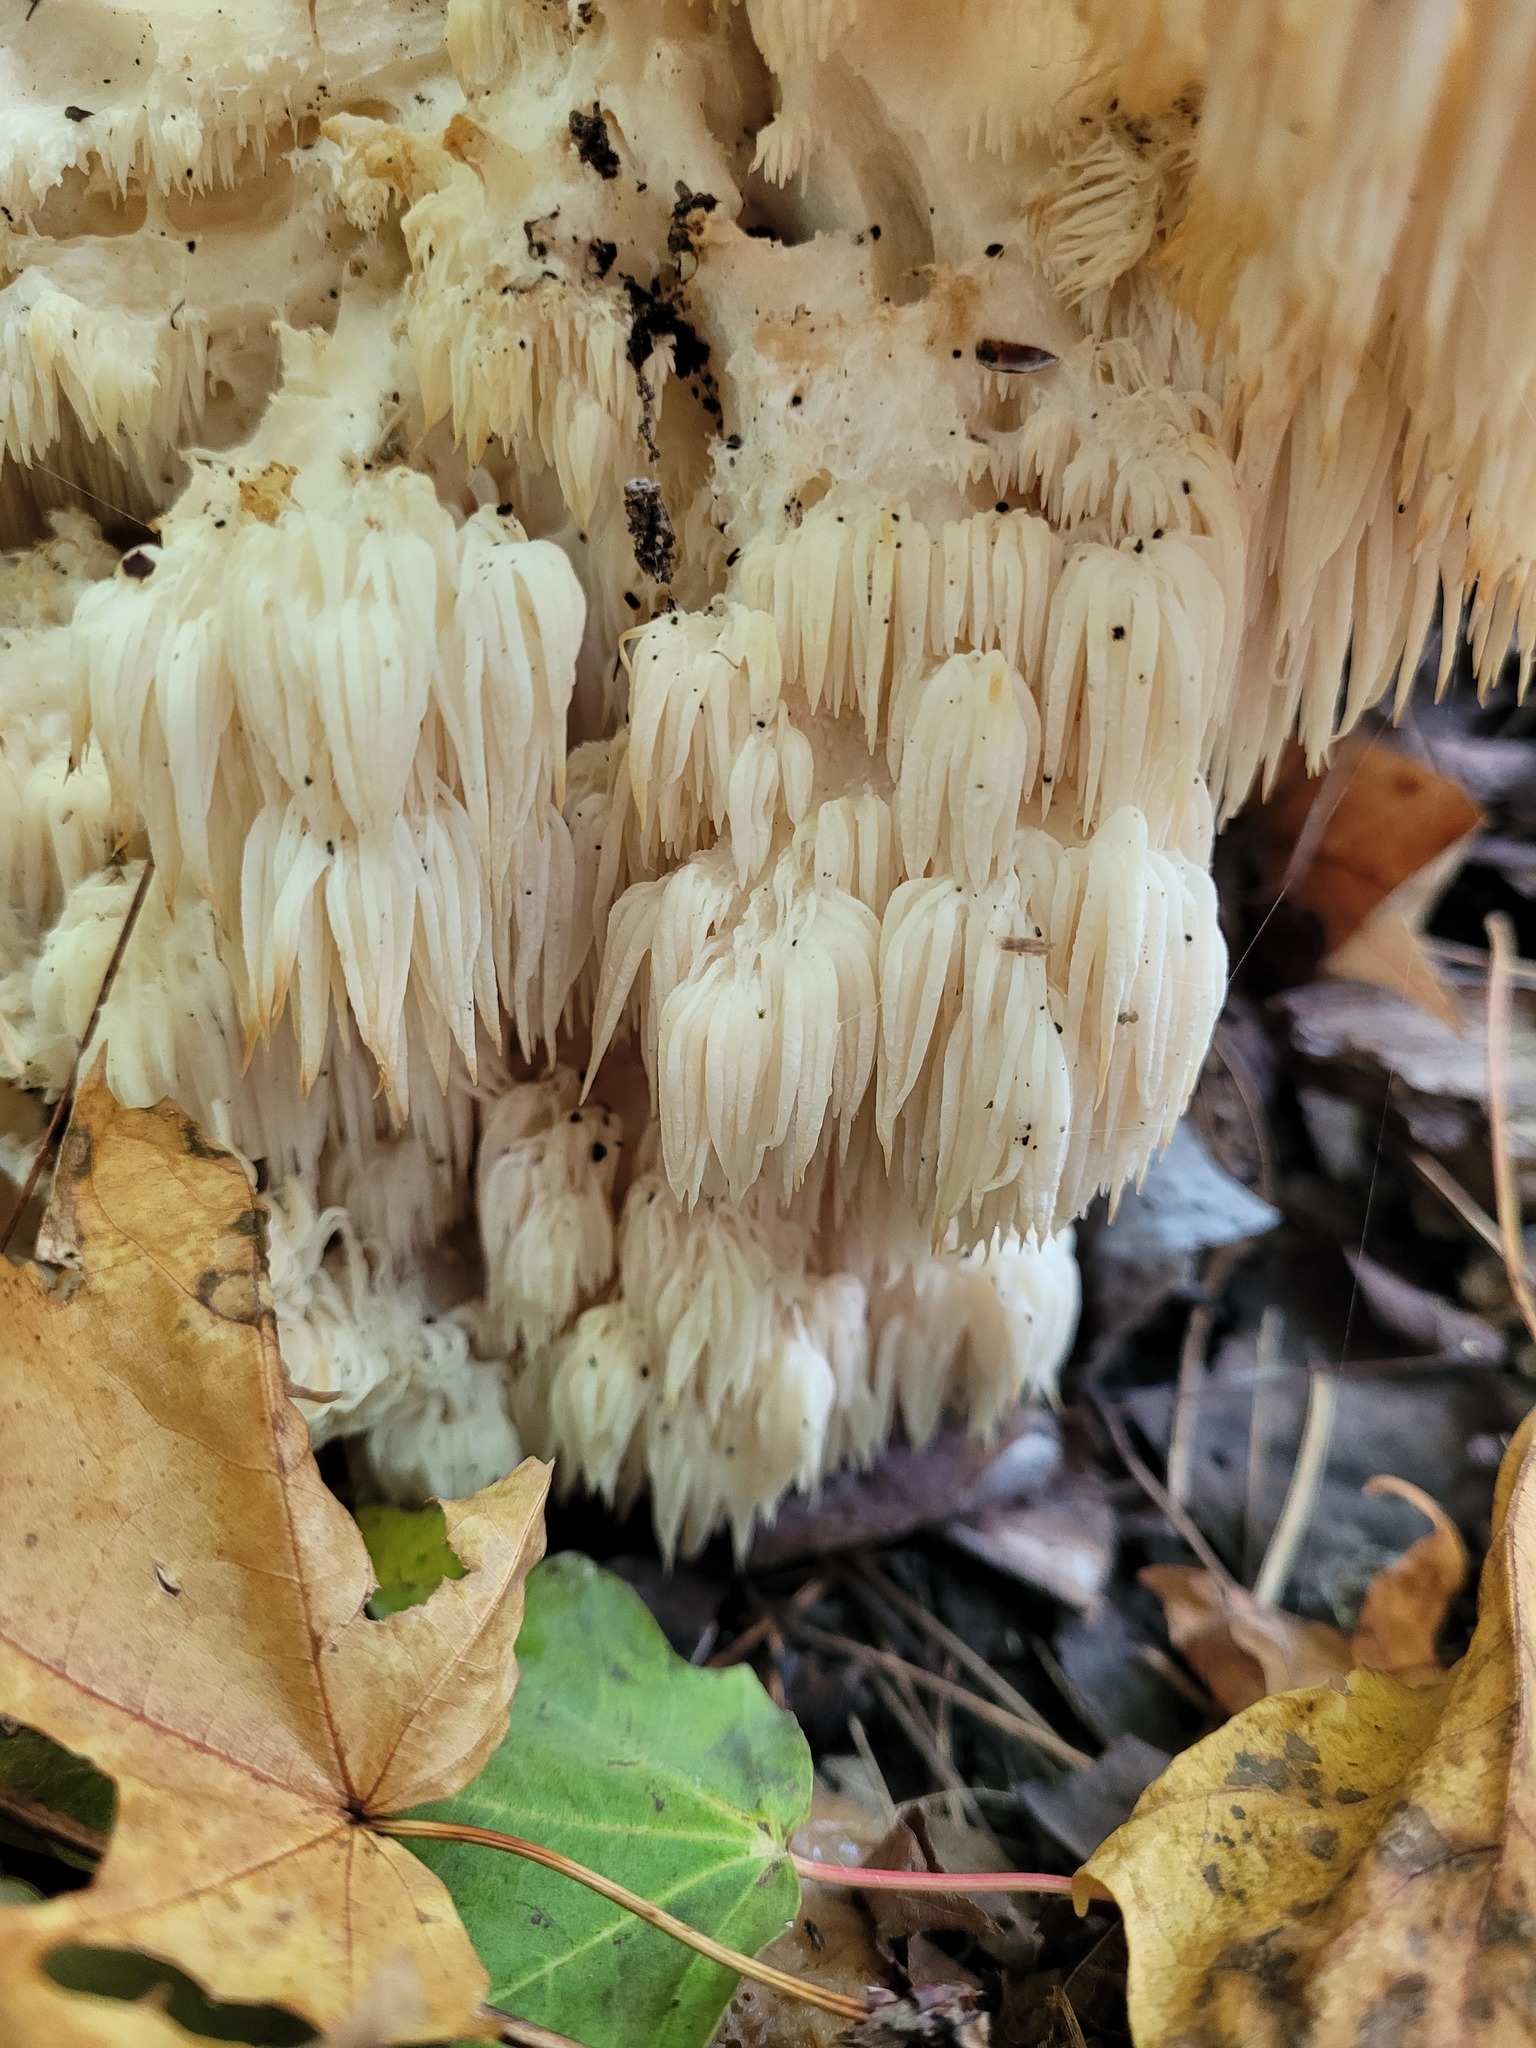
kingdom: Fungi
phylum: Basidiomycota
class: Agaricomycetes
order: Russulales
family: Hericiaceae
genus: Hericium
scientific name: Hericium americanum
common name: Bear's head tooth
